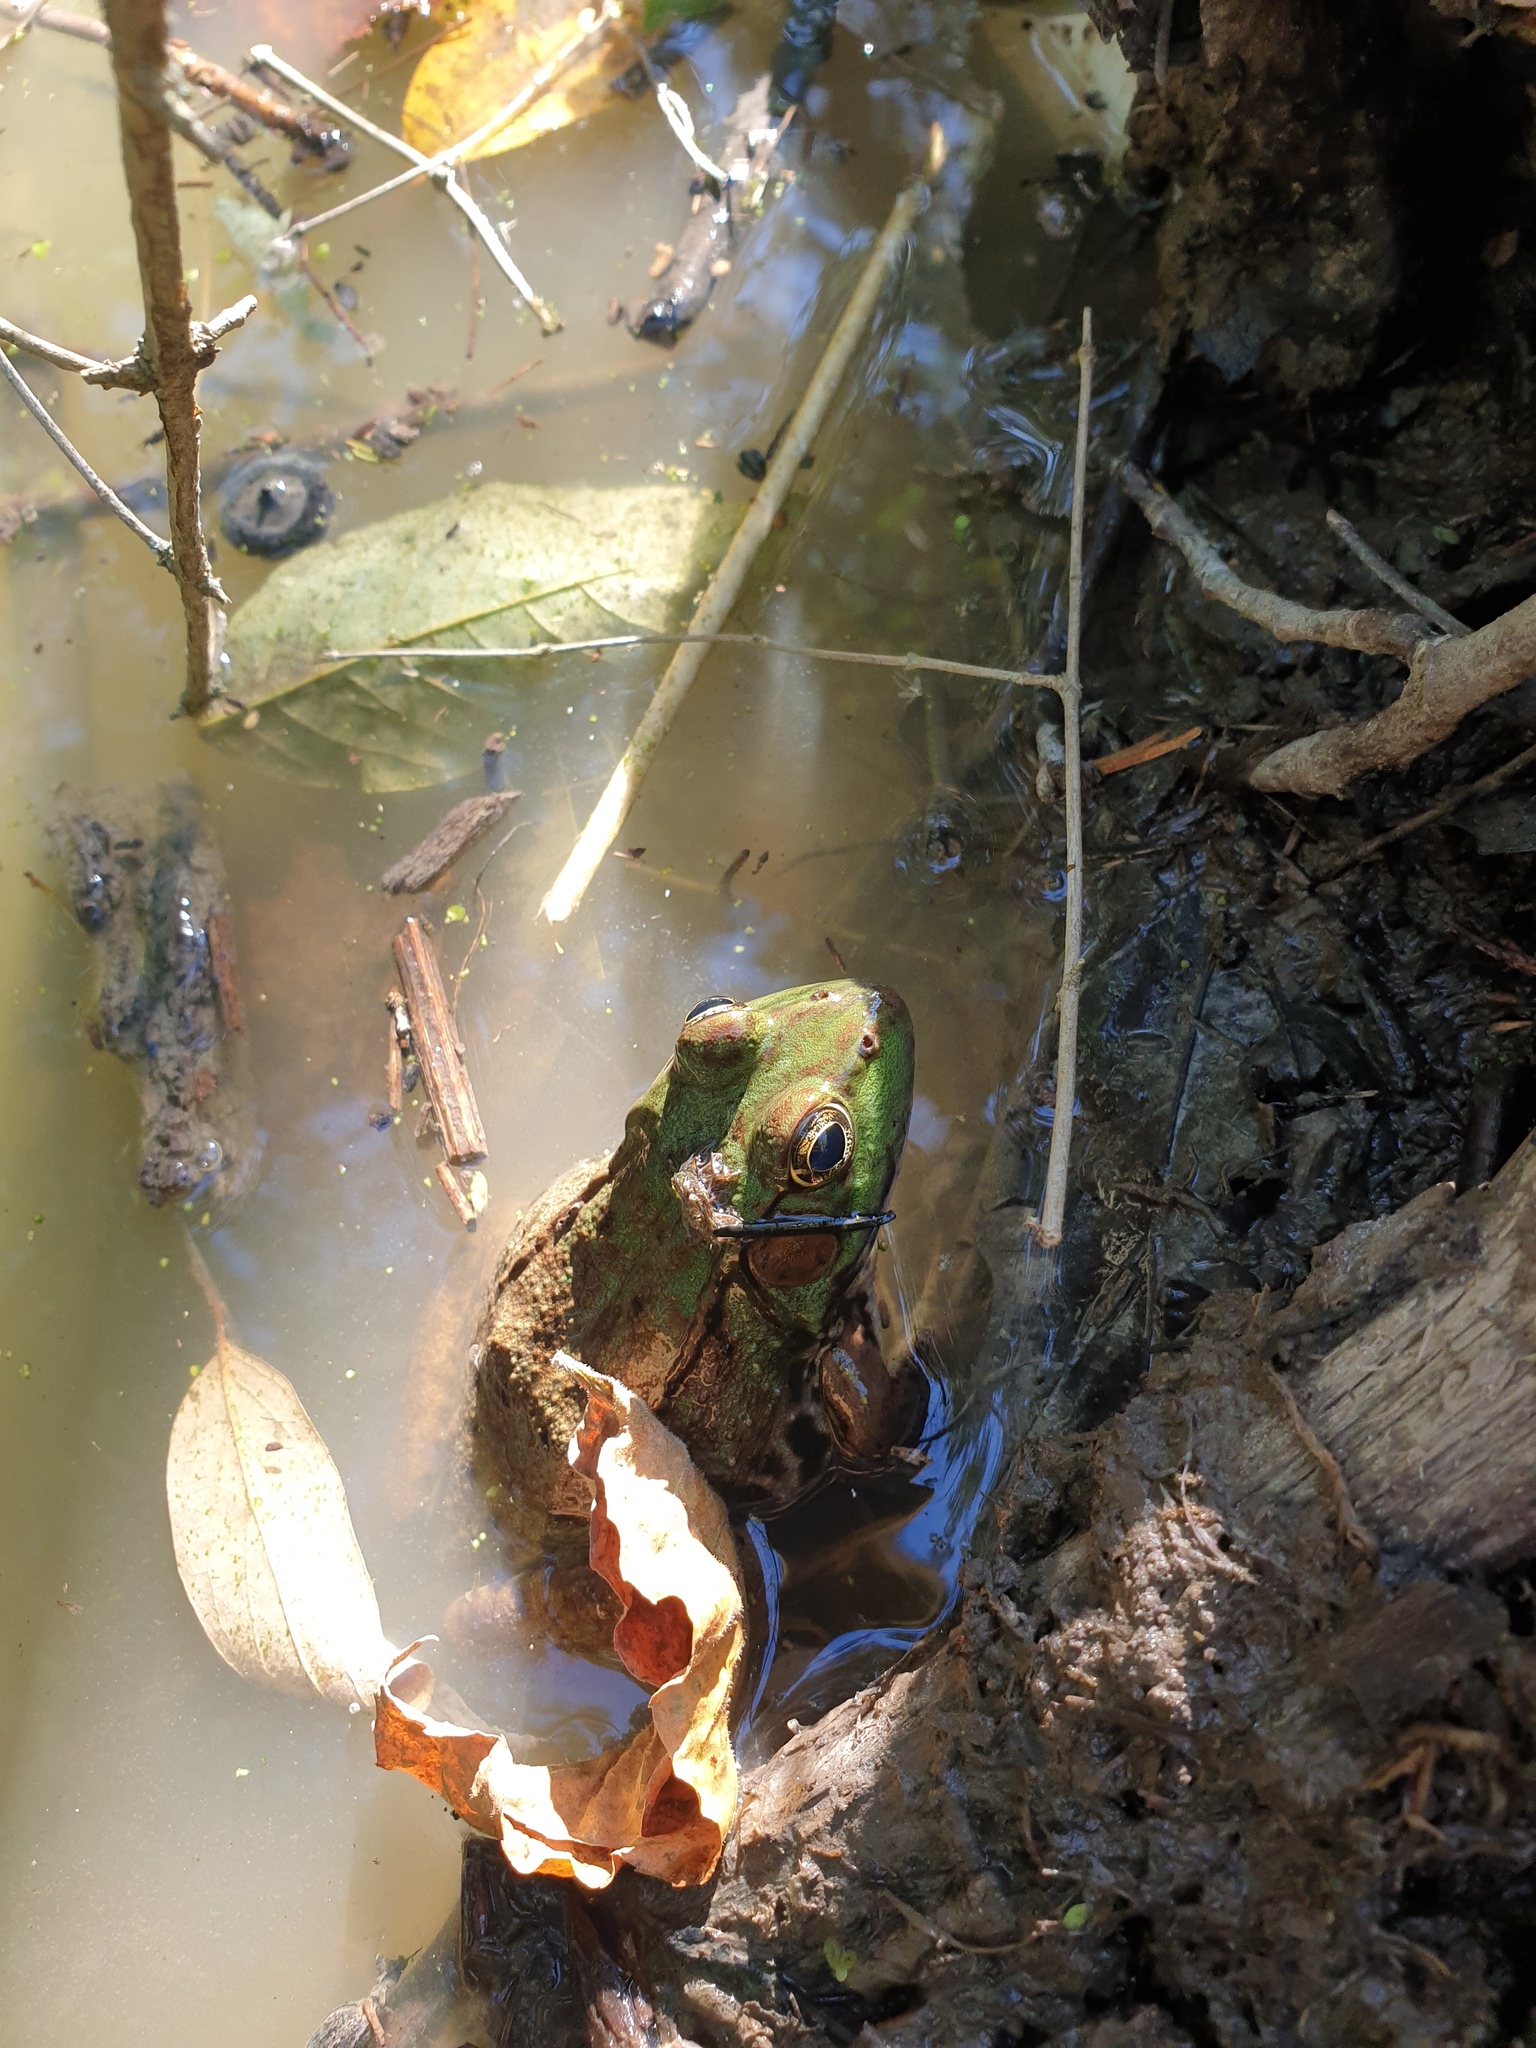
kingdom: Animalia
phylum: Chordata
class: Amphibia
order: Anura
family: Ranidae
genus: Lithobates
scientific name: Lithobates clamitans
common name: Green frog
